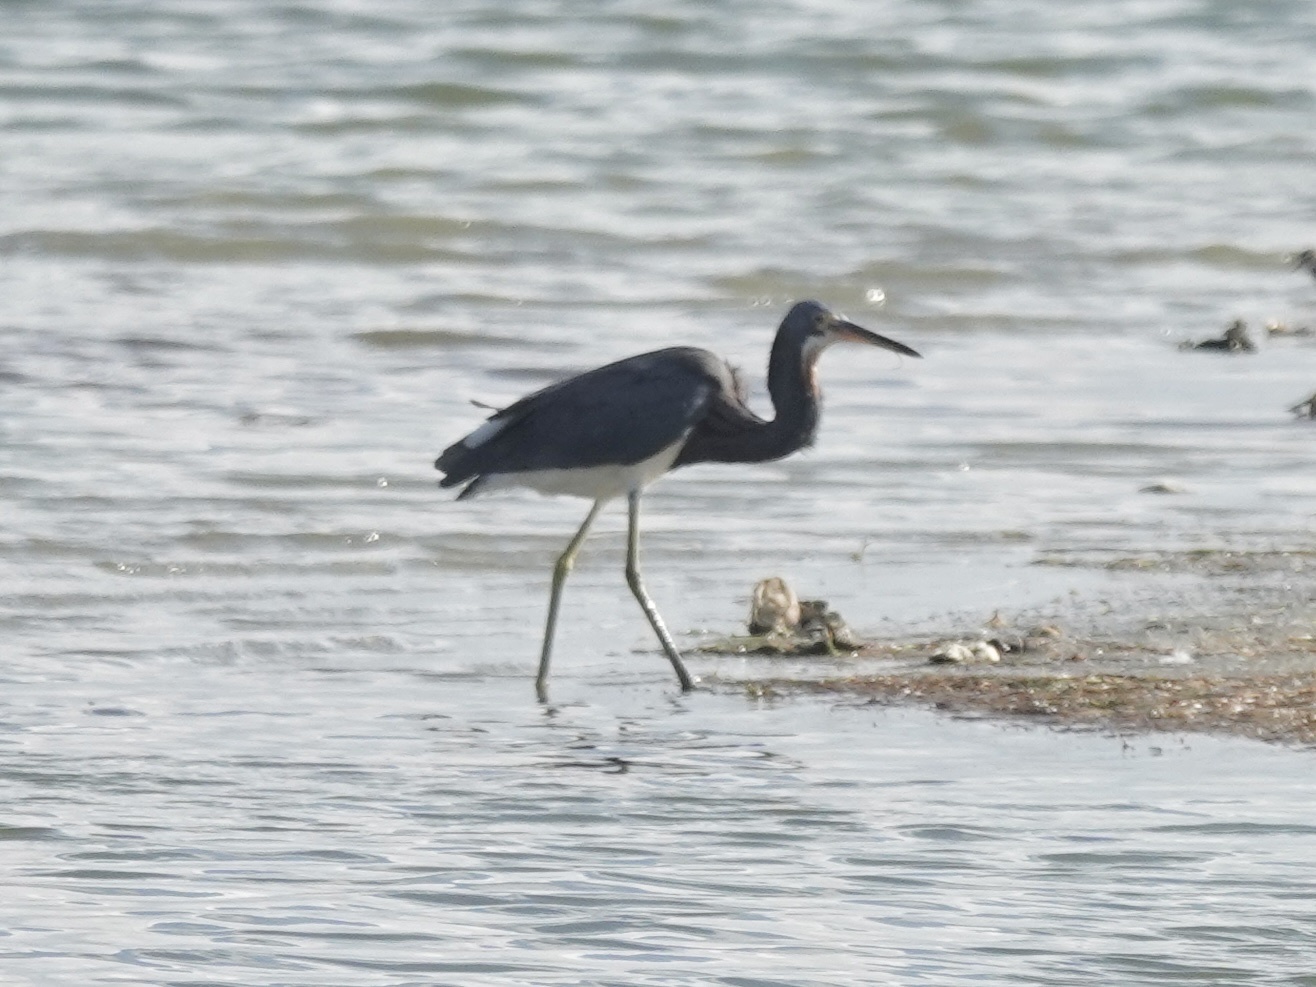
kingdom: Animalia
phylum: Chordata
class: Aves
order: Pelecaniformes
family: Ardeidae
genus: Egretta
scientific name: Egretta tricolor
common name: Tricolored heron
